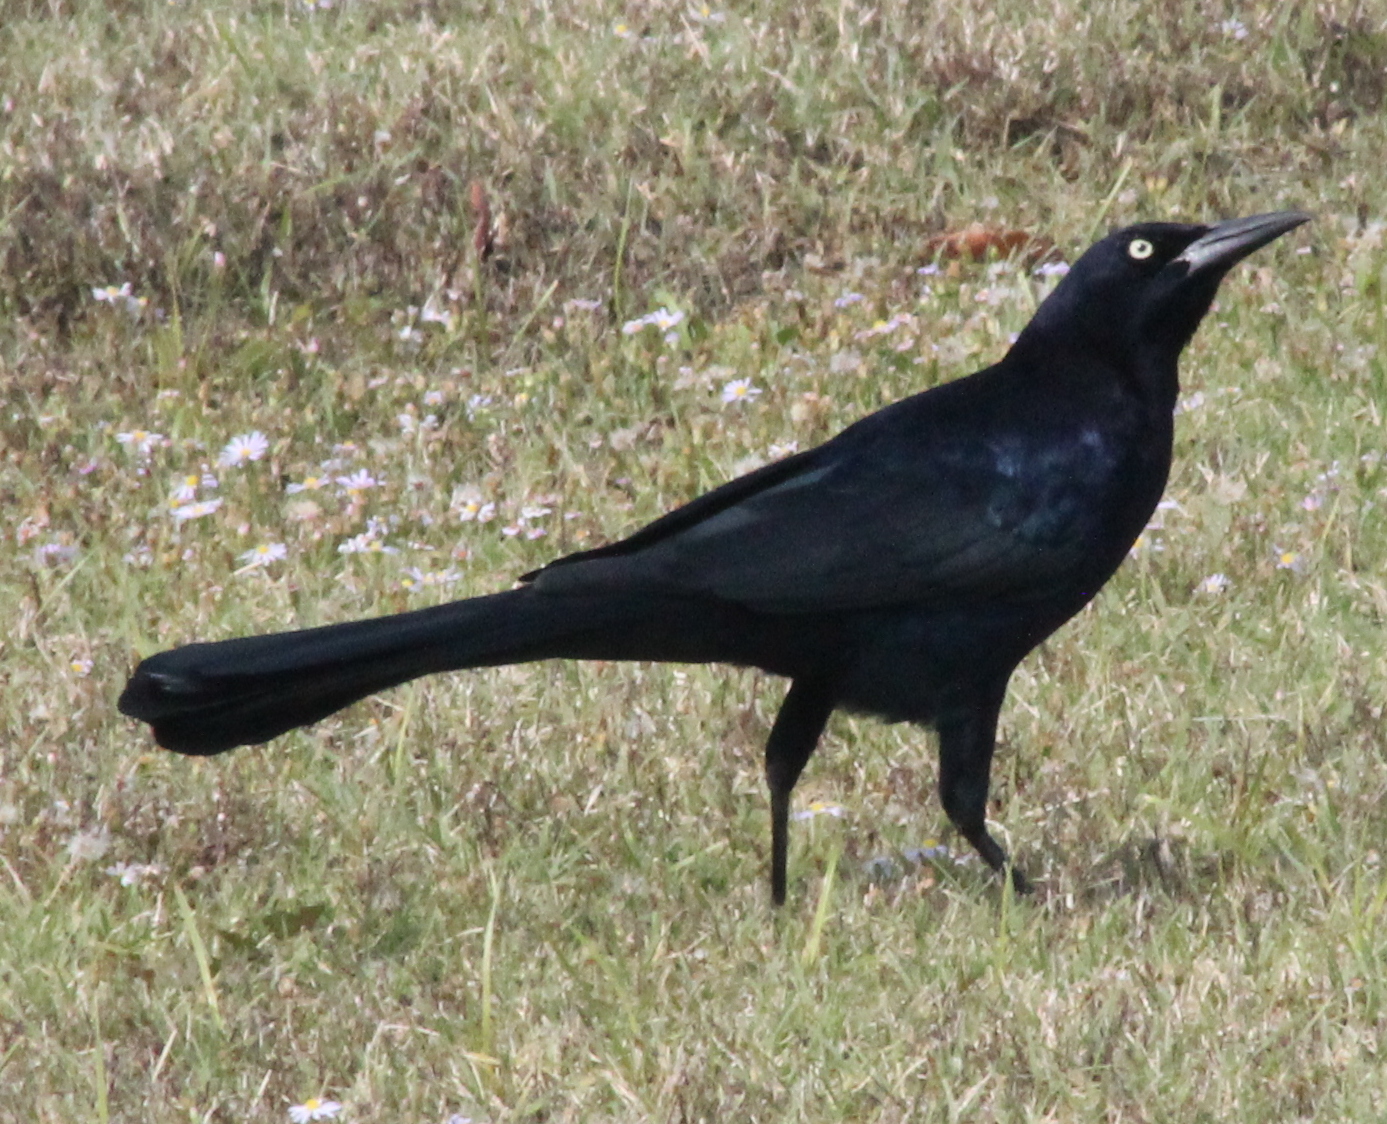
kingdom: Animalia
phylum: Chordata
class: Aves
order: Passeriformes
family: Icteridae
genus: Quiscalus
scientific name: Quiscalus mexicanus
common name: Great-tailed grackle
